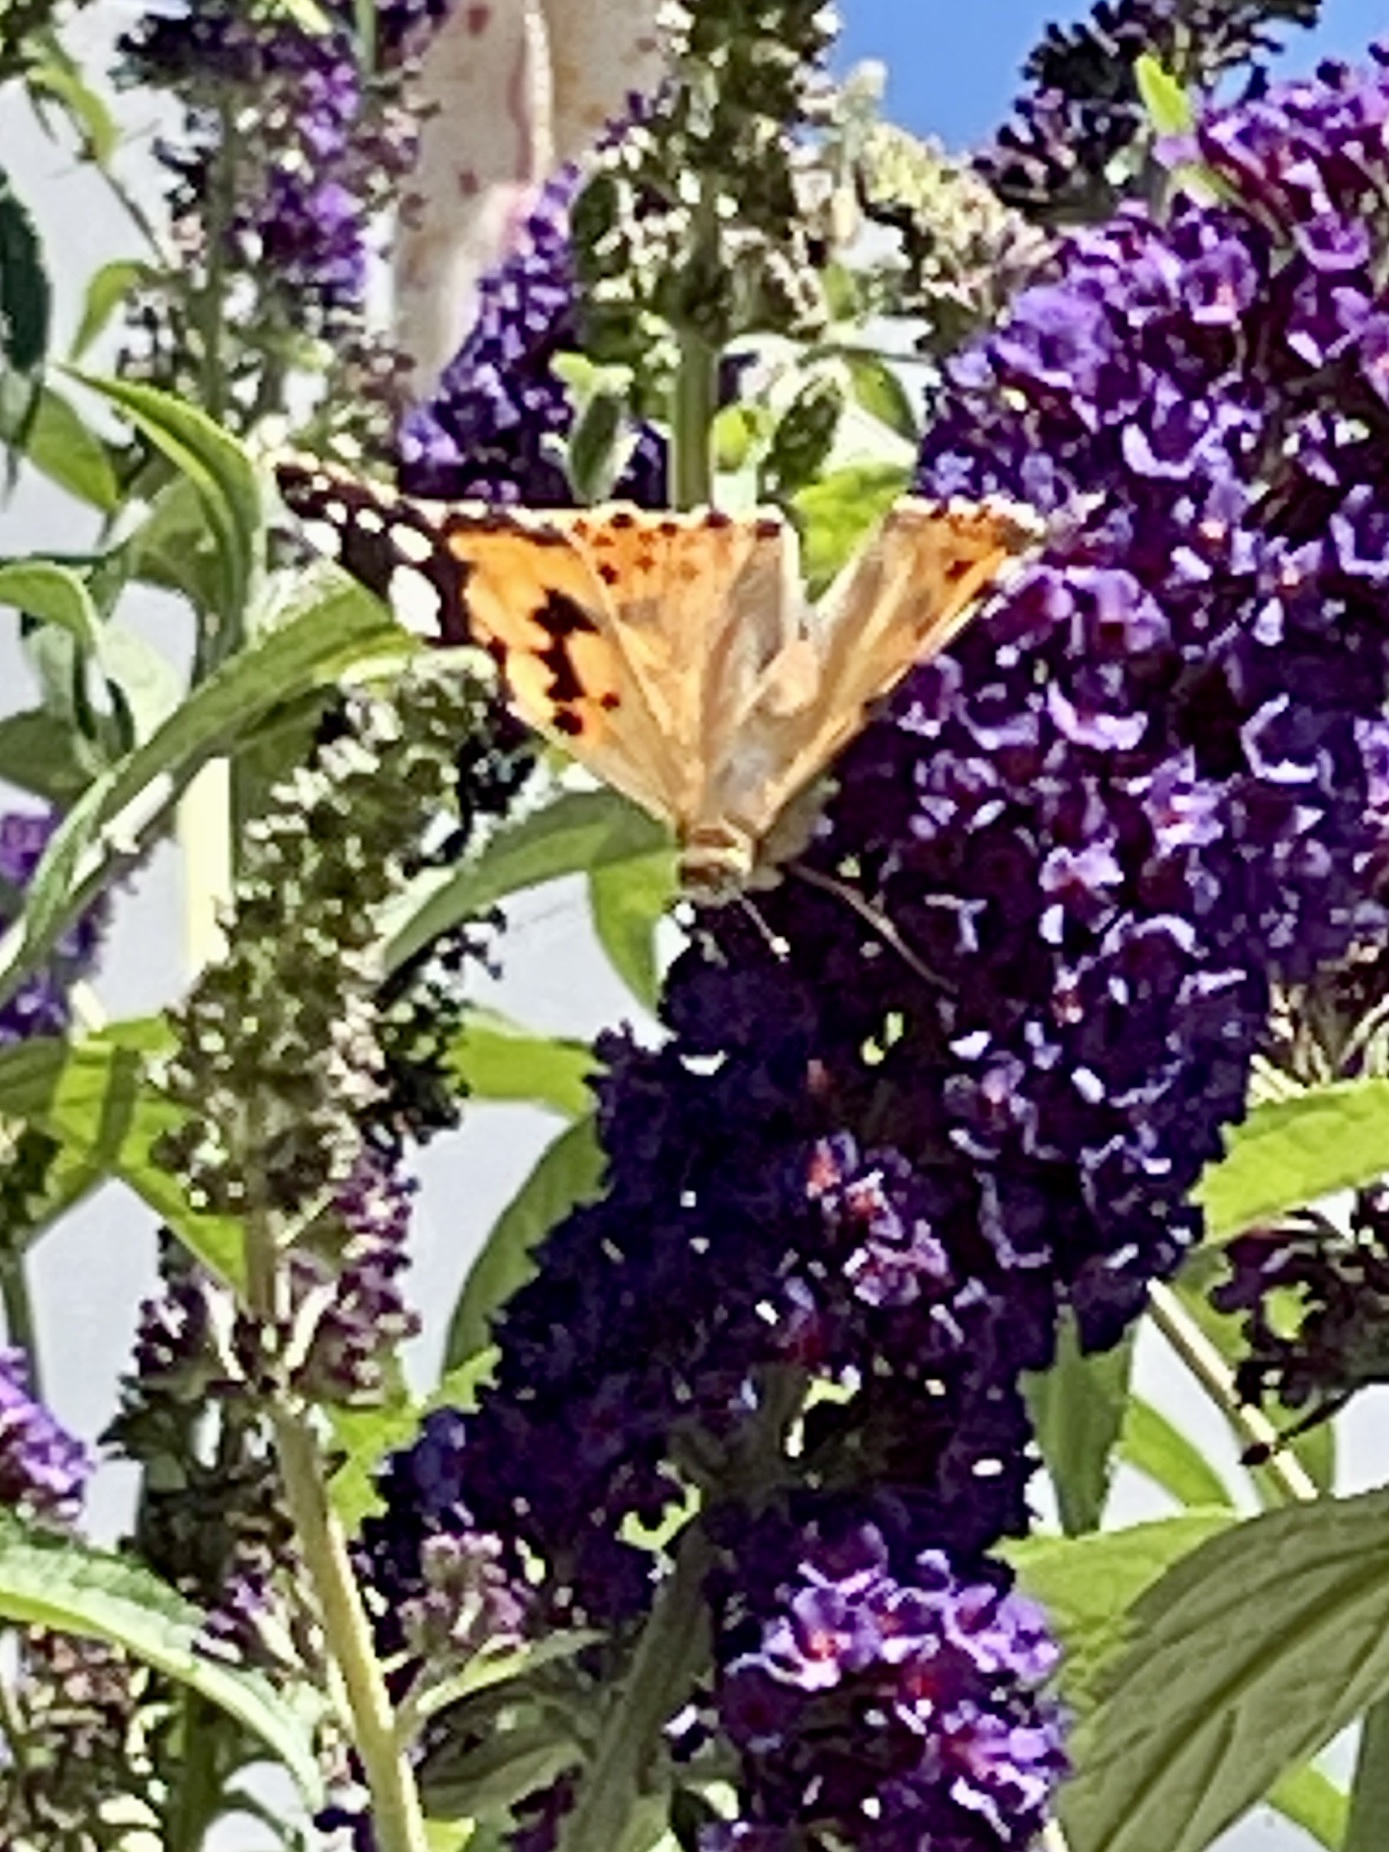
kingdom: Animalia
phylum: Arthropoda
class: Insecta
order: Lepidoptera
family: Nymphalidae
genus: Vanessa
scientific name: Vanessa cardui
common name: Painted lady
